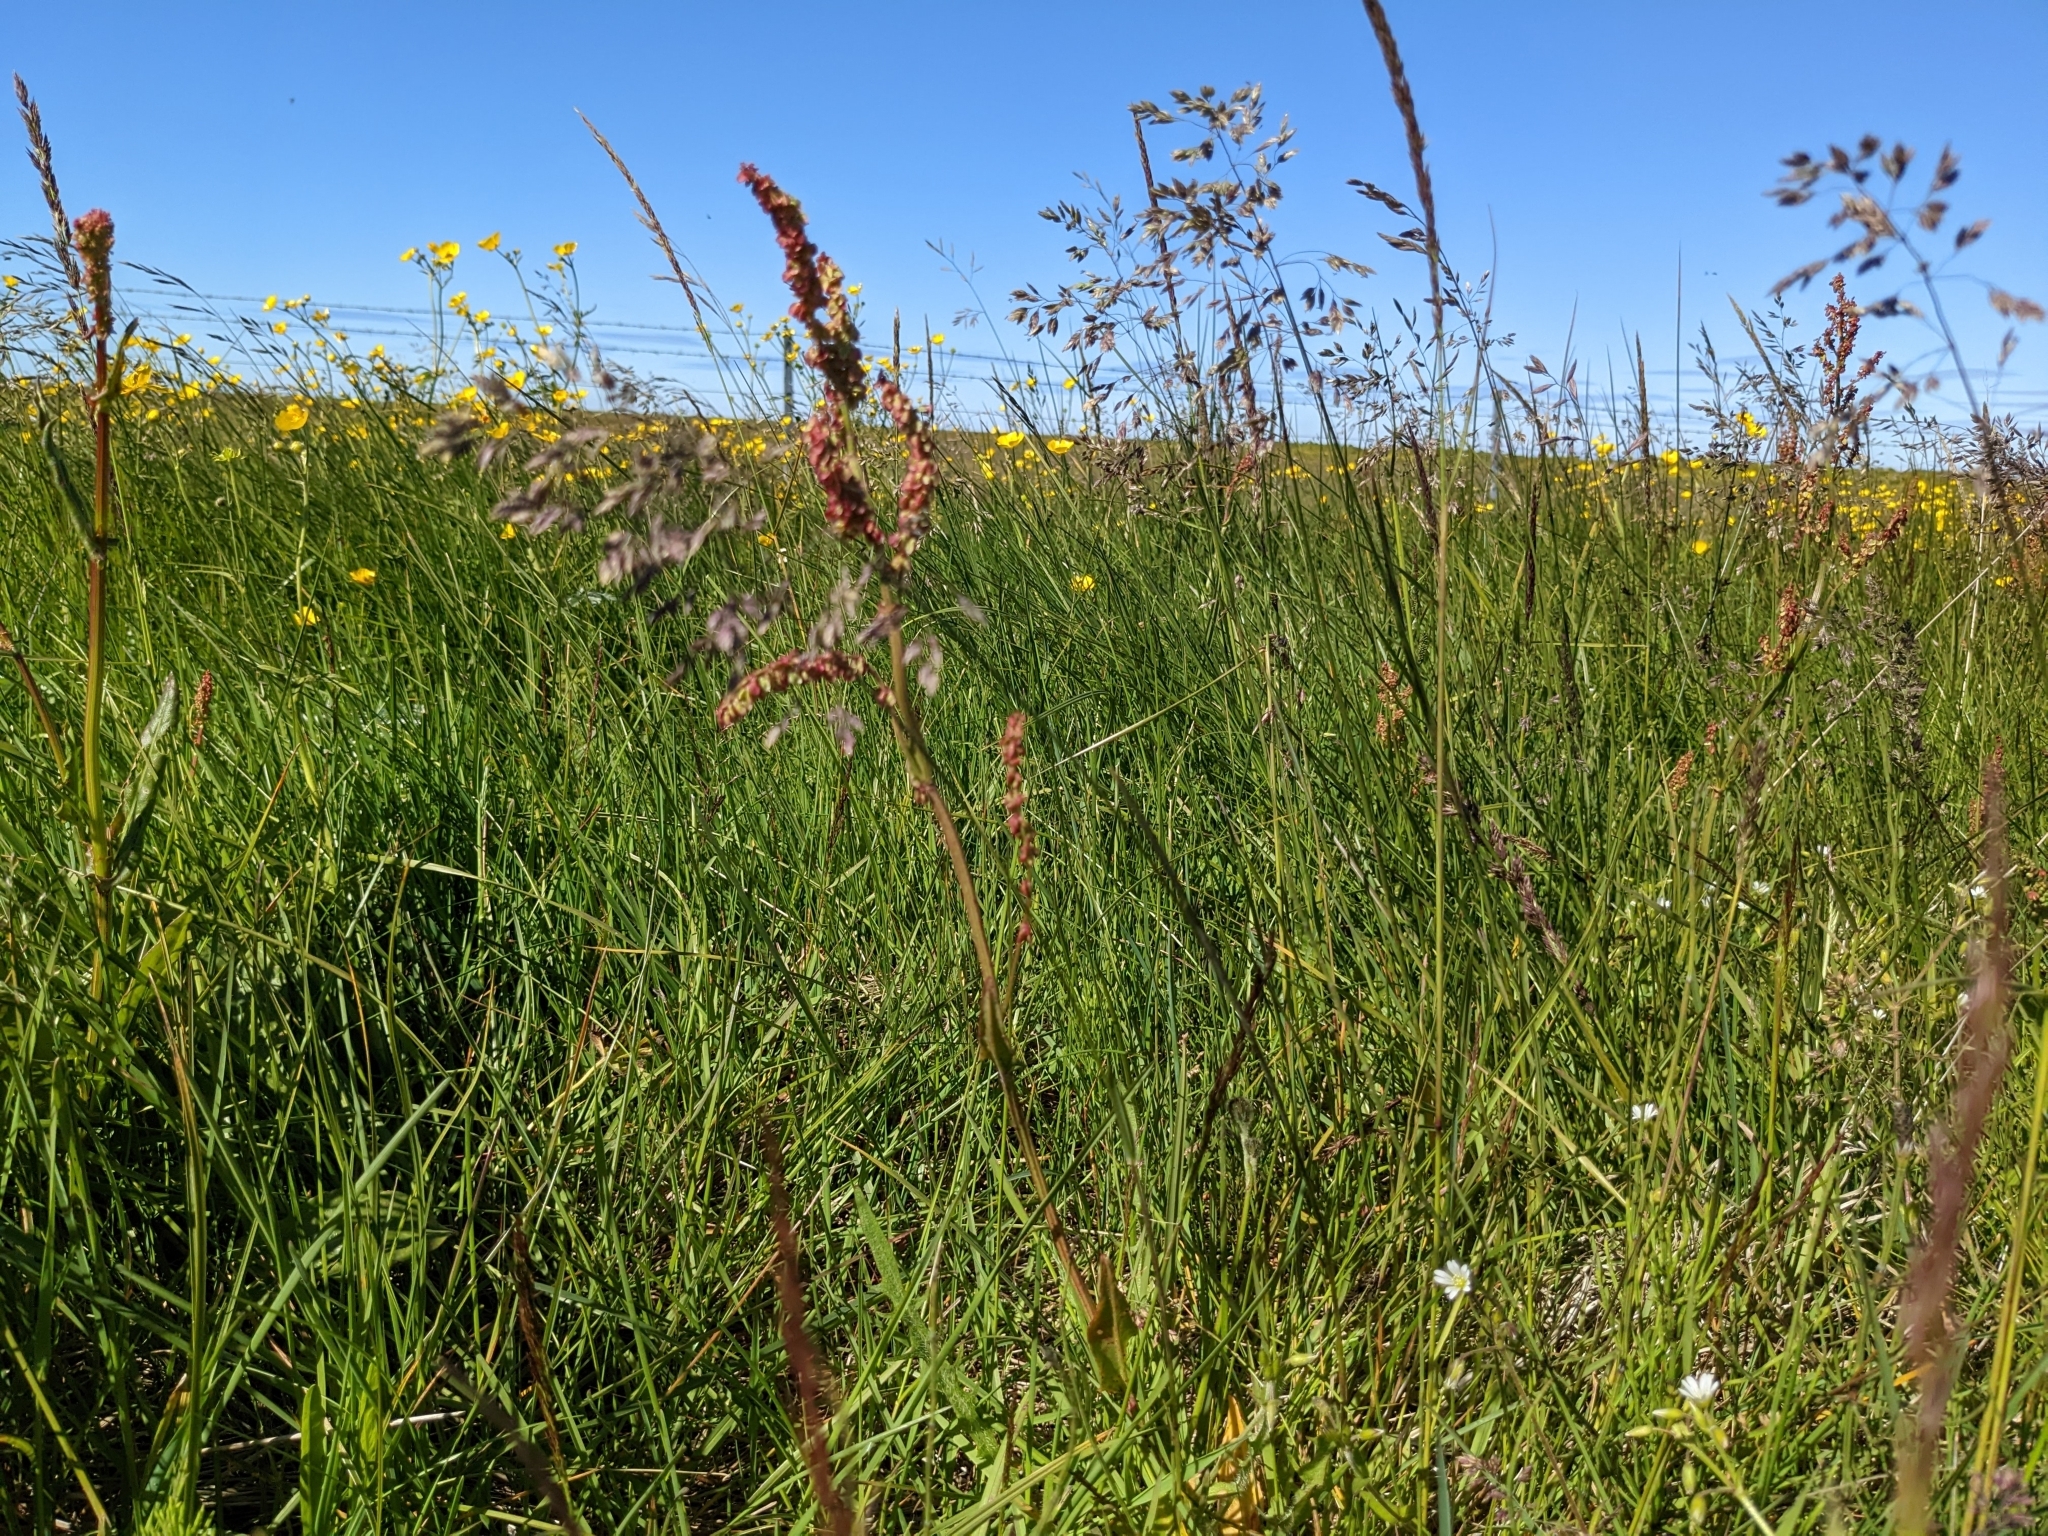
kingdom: Plantae
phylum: Tracheophyta
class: Magnoliopsida
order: Caryophyllales
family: Polygonaceae
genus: Rumex
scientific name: Rumex acetosa
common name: Garden sorrel
